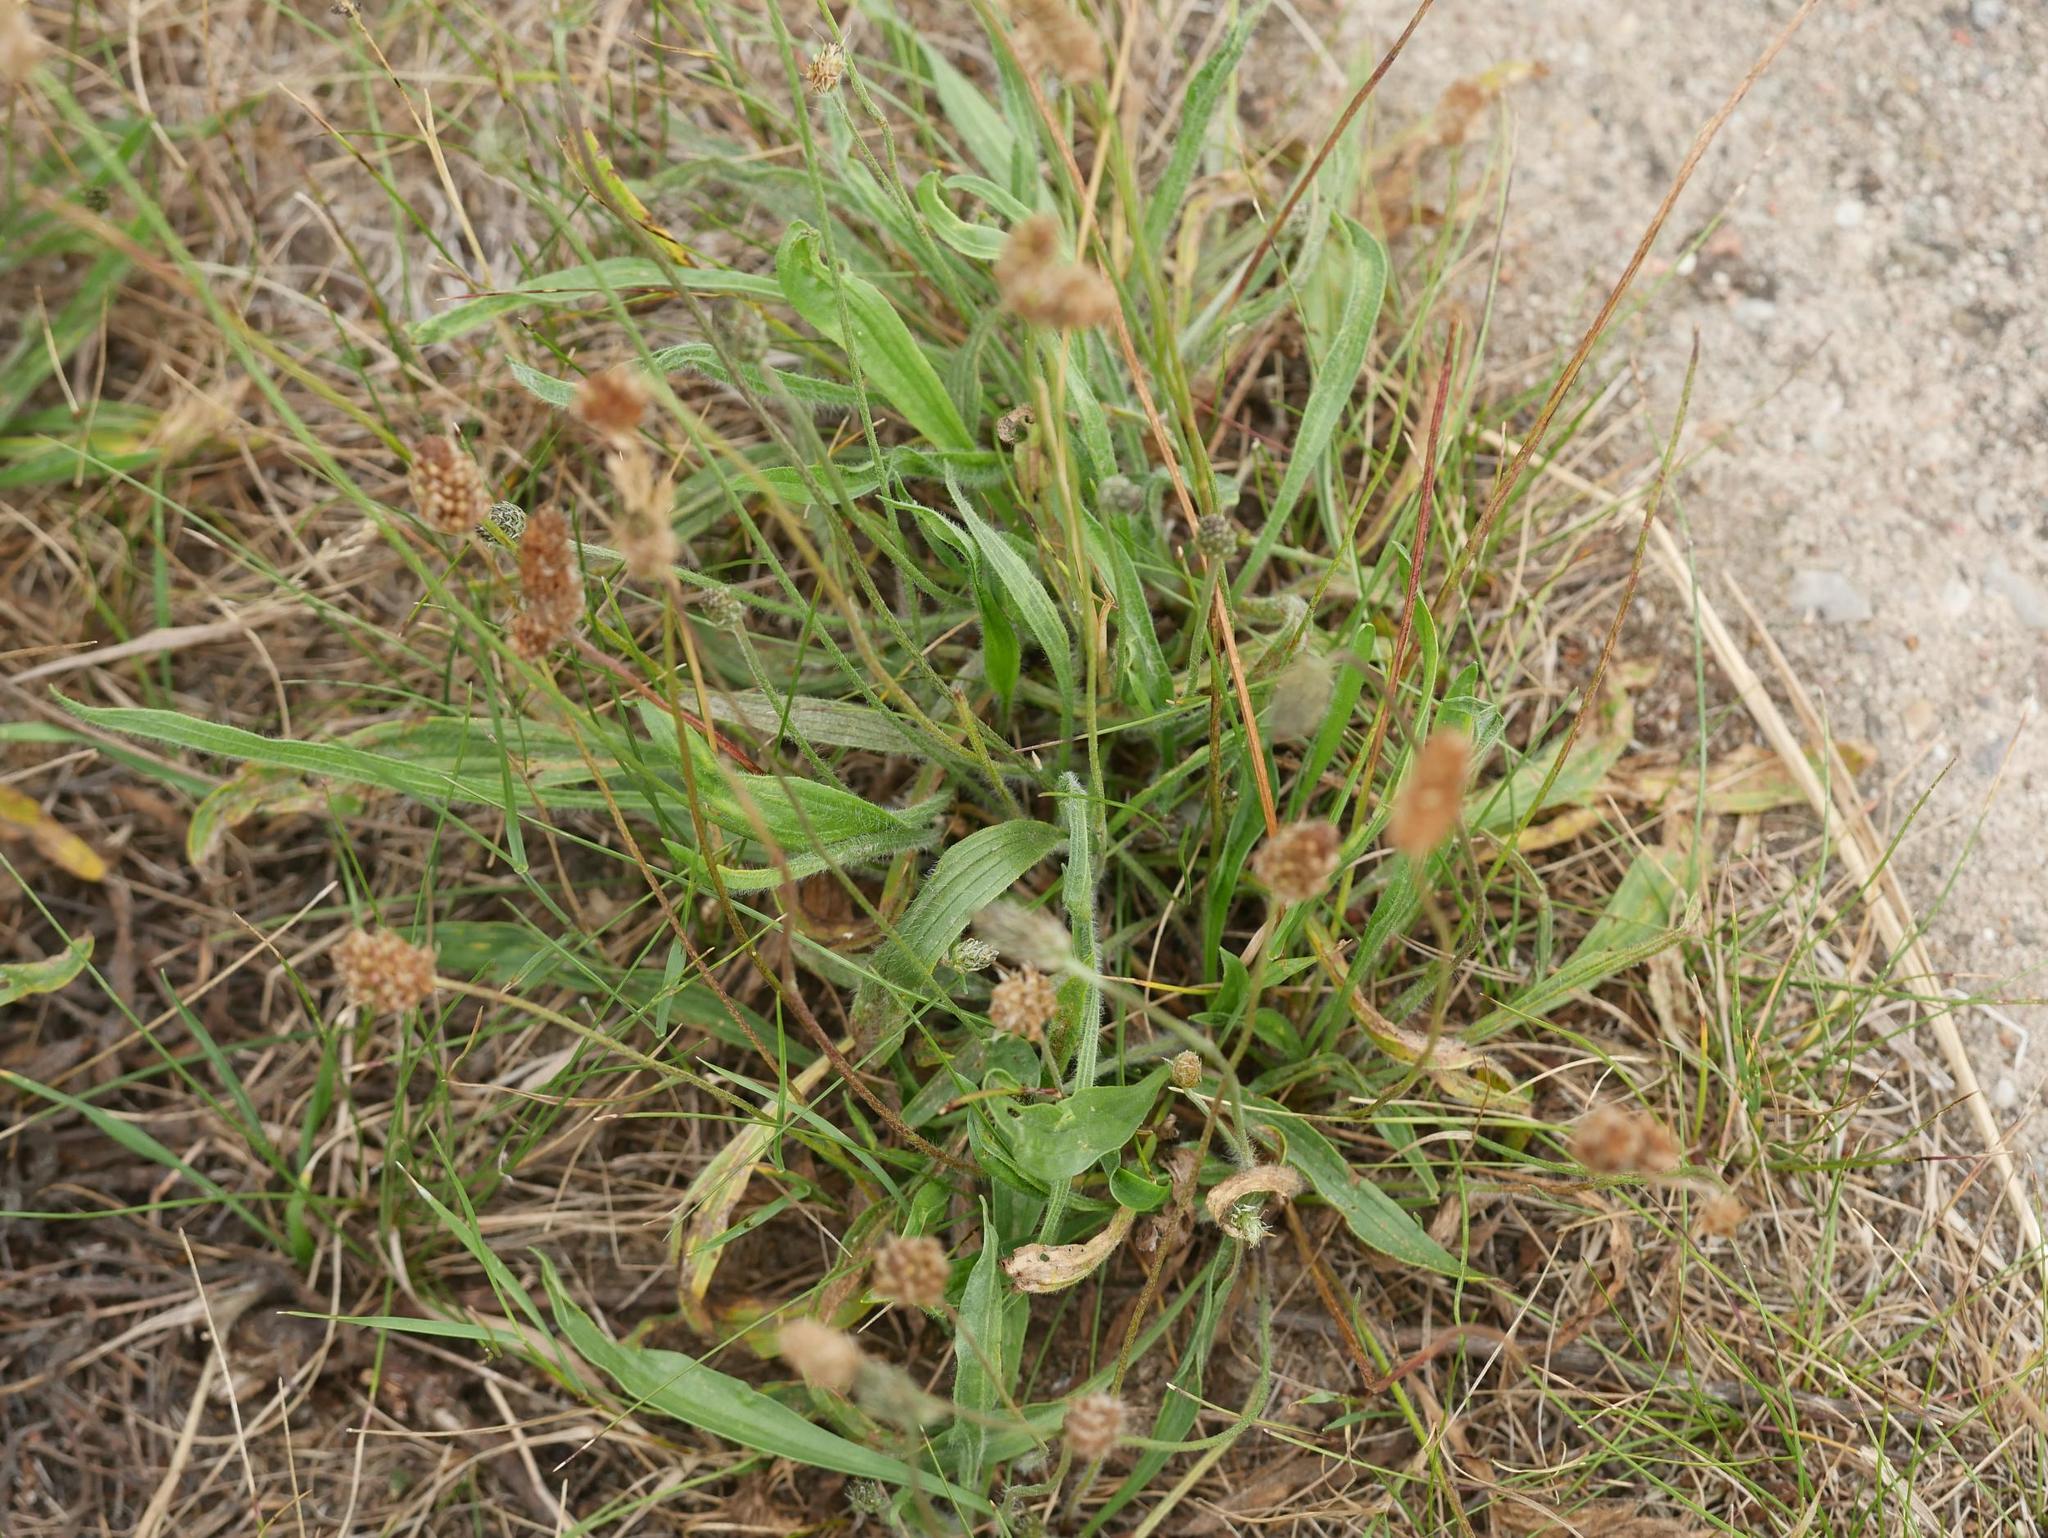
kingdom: Plantae
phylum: Tracheophyta
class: Magnoliopsida
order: Lamiales
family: Plantaginaceae
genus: Plantago
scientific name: Plantago lanceolata
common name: Ribwort plantain
